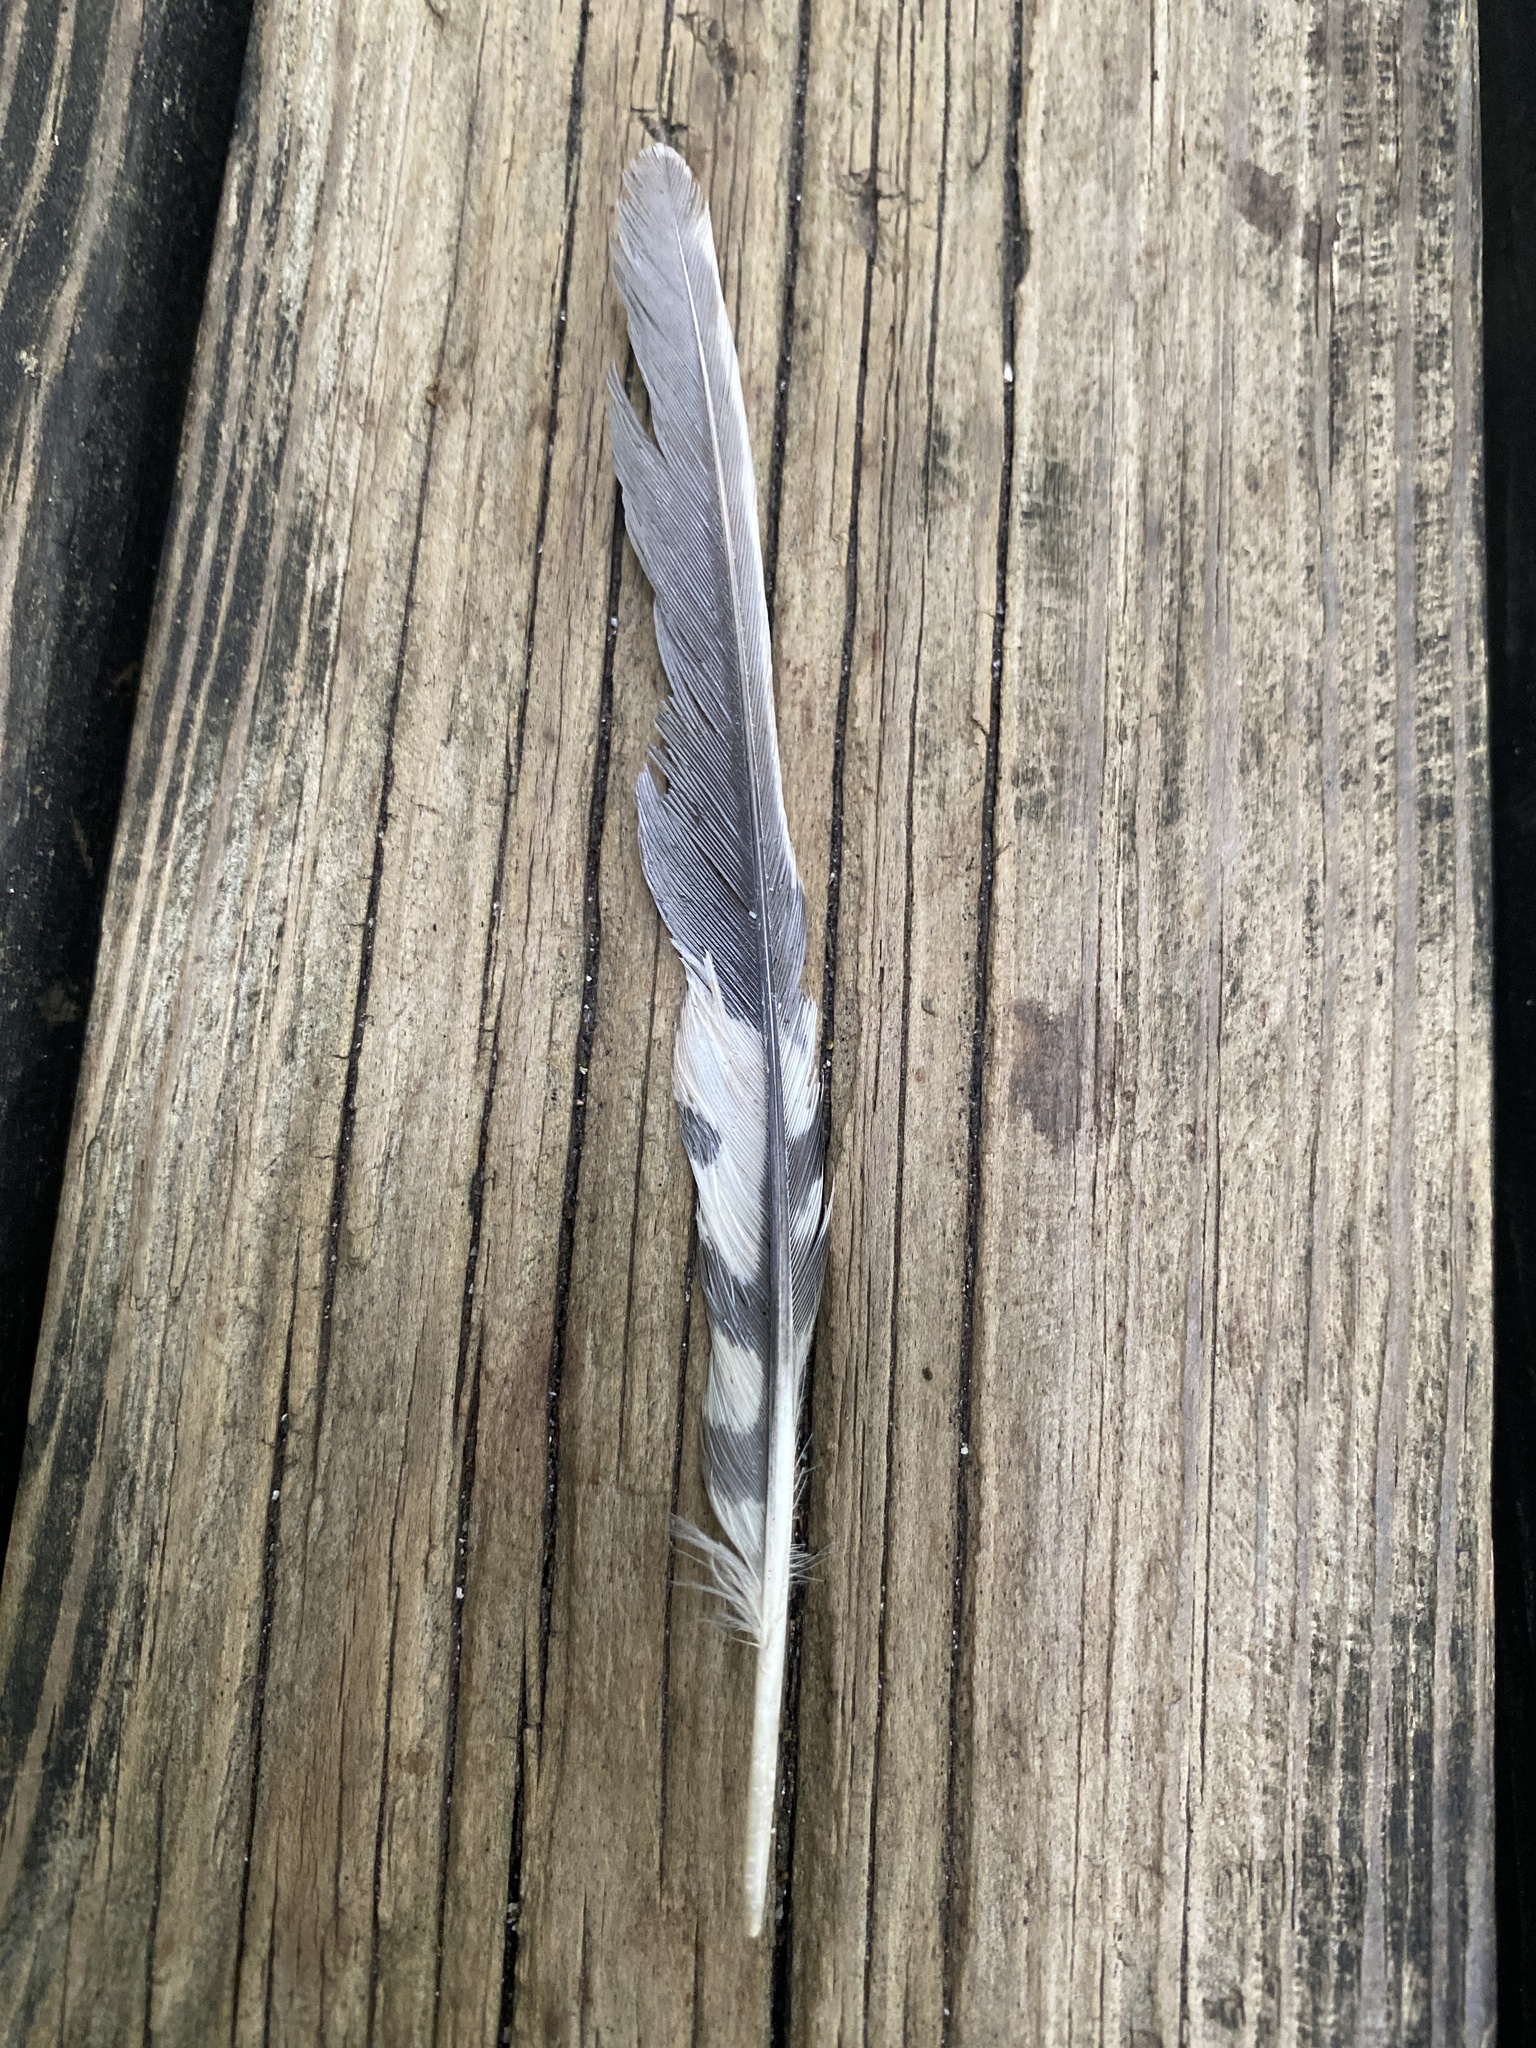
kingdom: Animalia
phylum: Chordata
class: Aves
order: Piciformes
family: Picidae
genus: Melanerpes
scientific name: Melanerpes carolinus
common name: Red-bellied woodpecker
